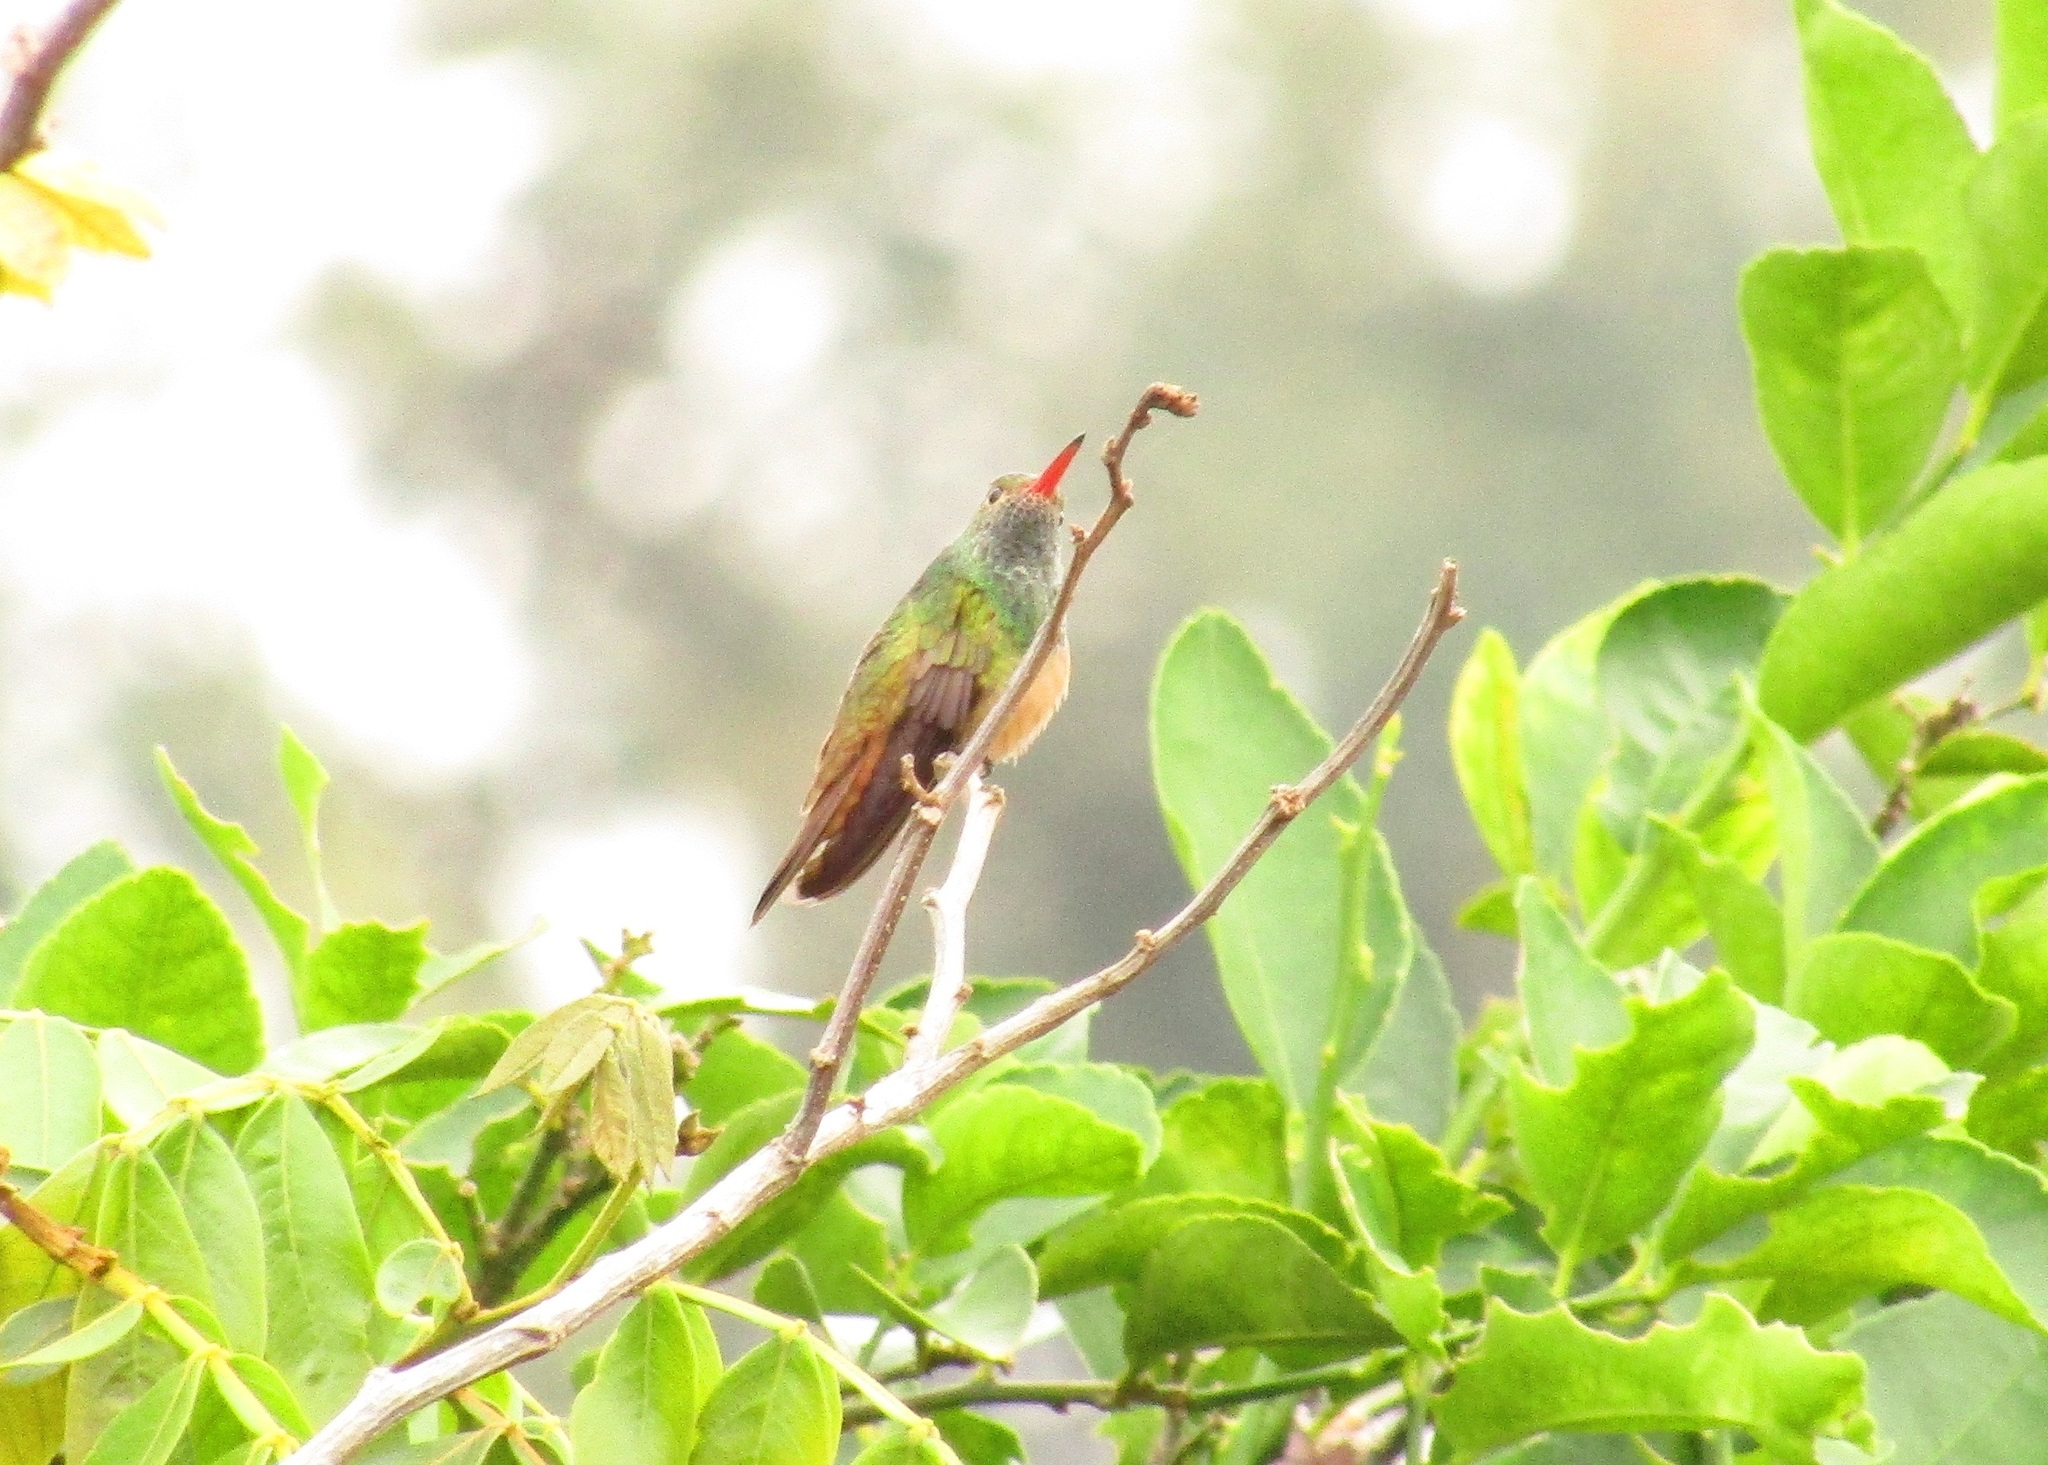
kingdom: Animalia
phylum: Chordata
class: Aves
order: Apodiformes
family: Trochilidae
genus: Amazilia
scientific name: Amazilia yucatanensis
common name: Buff-bellied hummingbird
